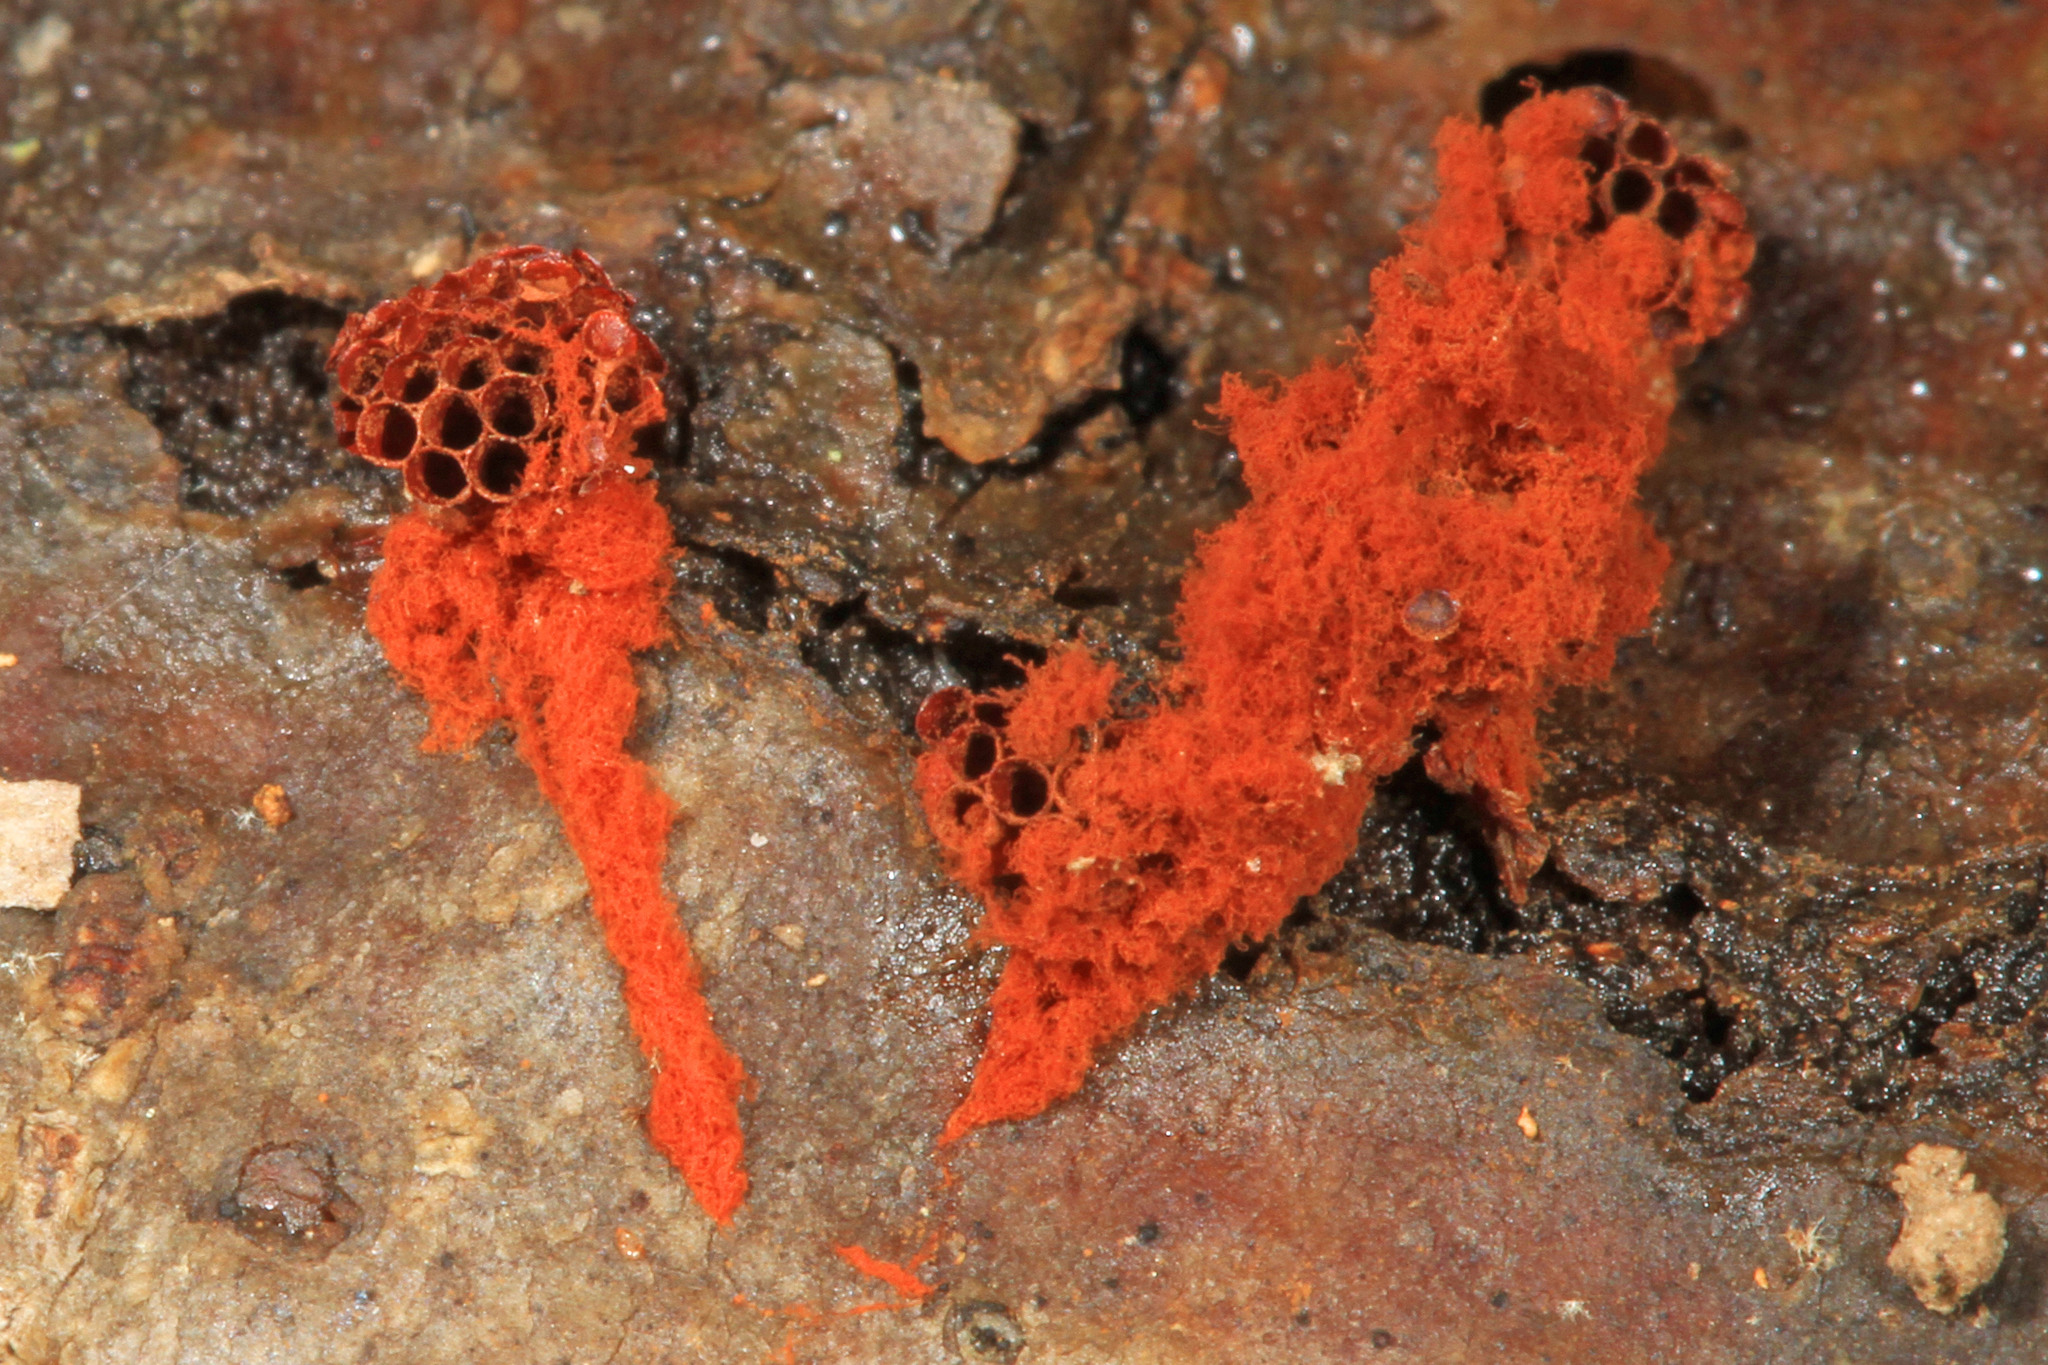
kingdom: Protozoa
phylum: Mycetozoa
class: Myxomycetes
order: Trichiales
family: Trichiaceae
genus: Metatrichia
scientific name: Metatrichia vesparia
